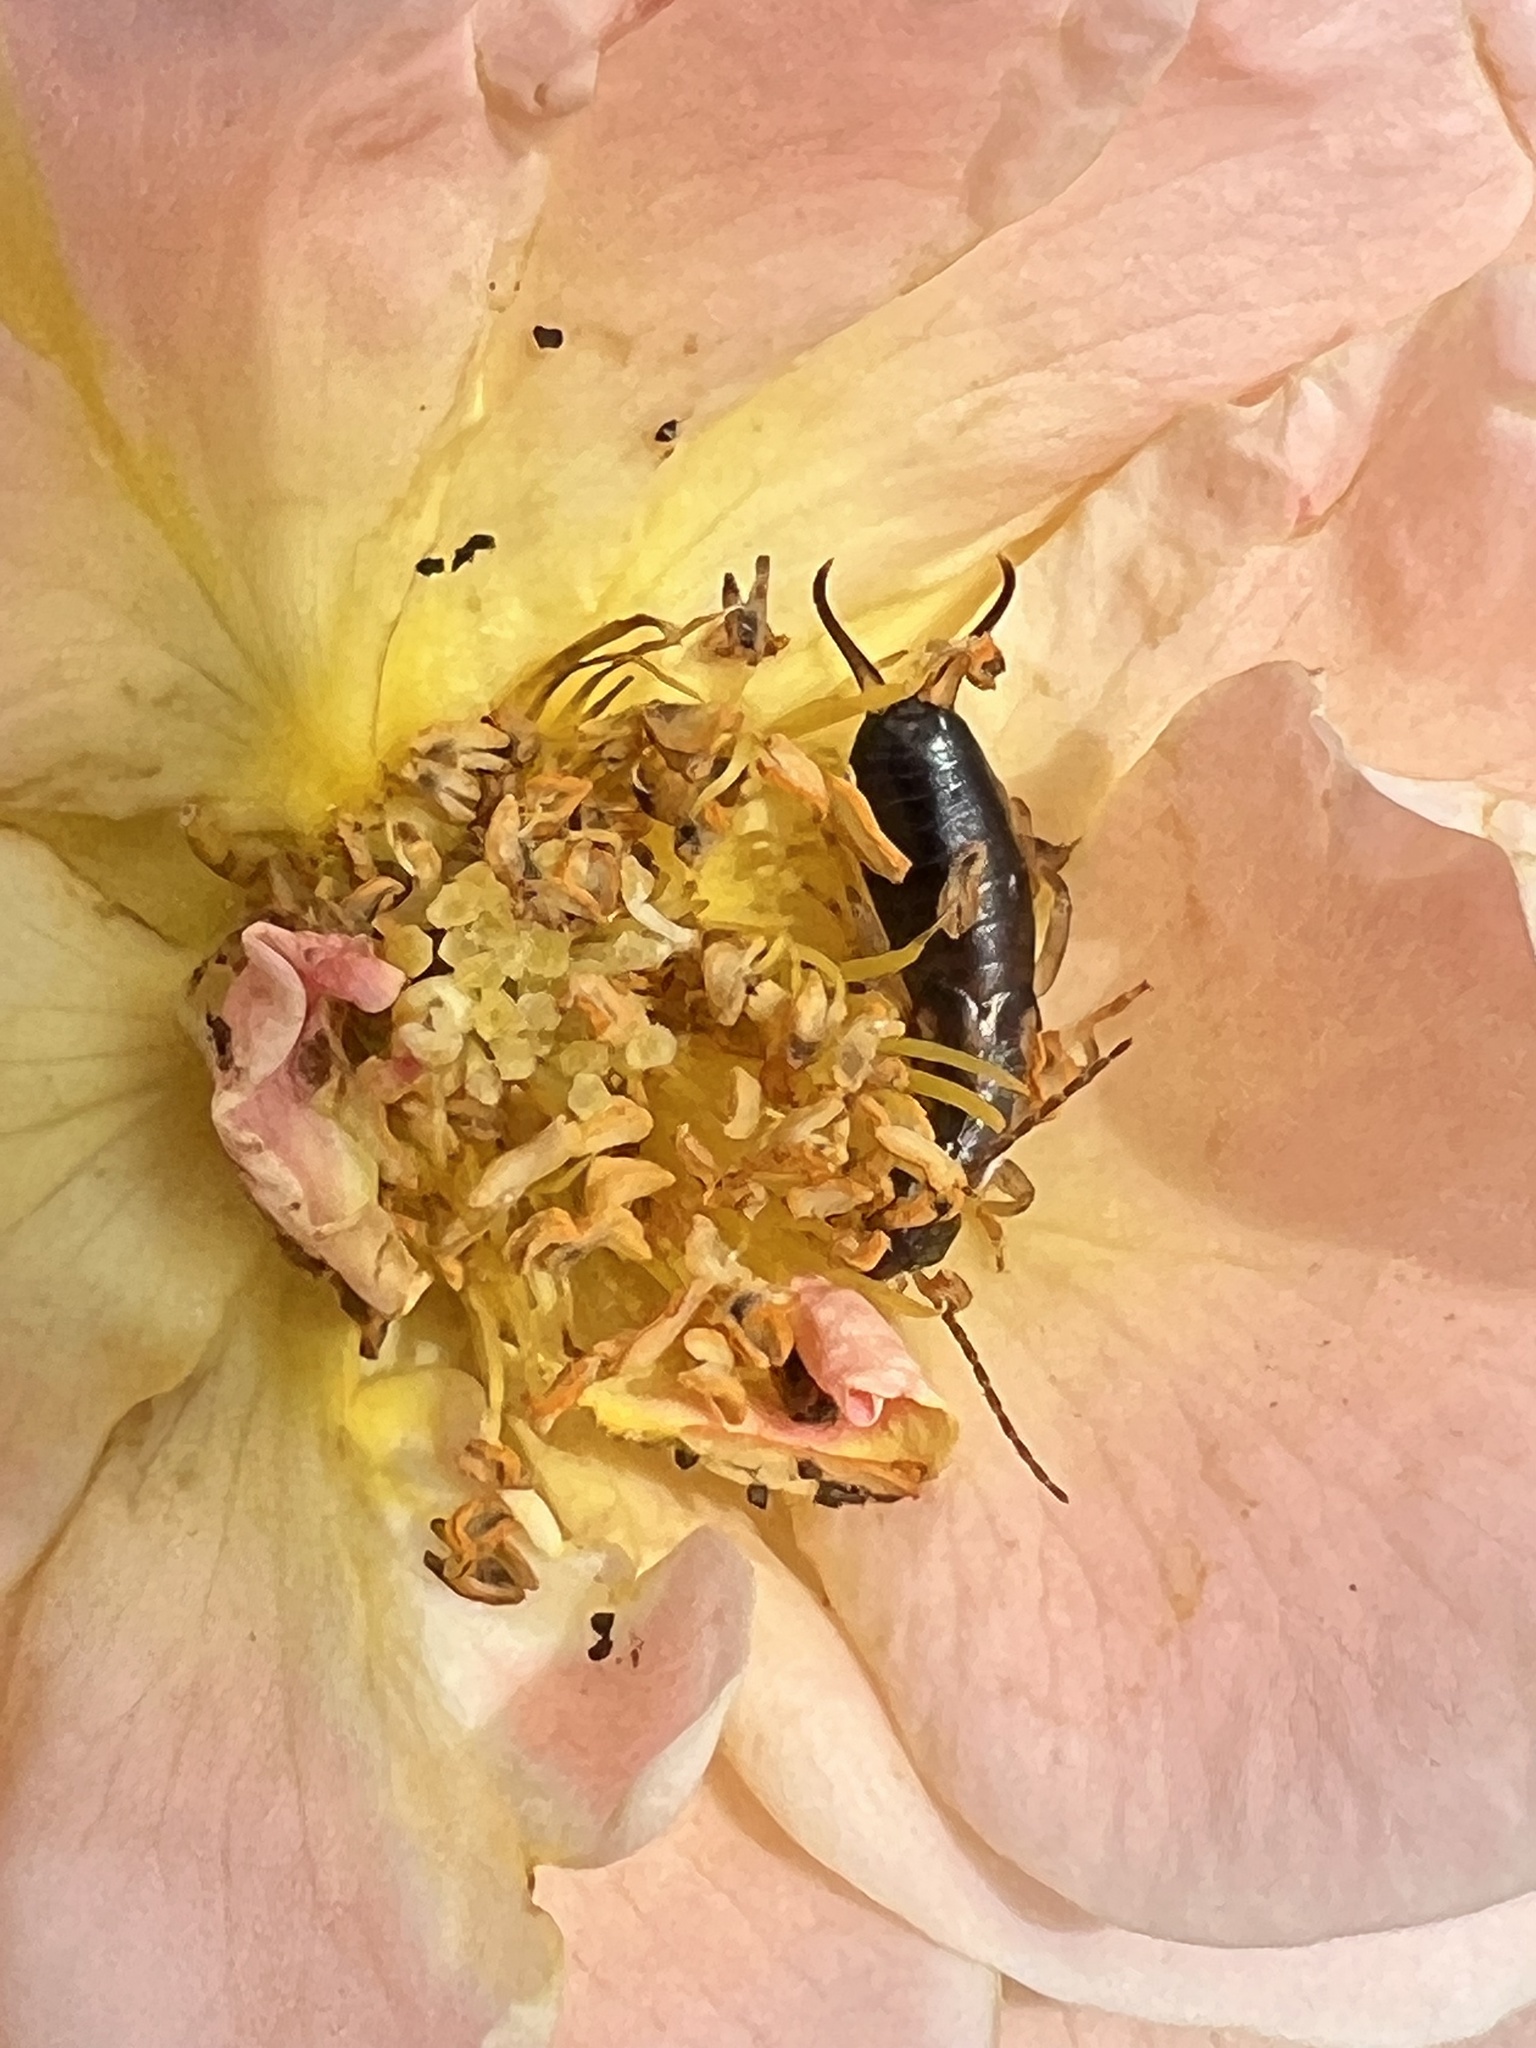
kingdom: Animalia
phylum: Arthropoda
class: Insecta
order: Dermaptera
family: Forficulidae
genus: Forficula
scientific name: Forficula
